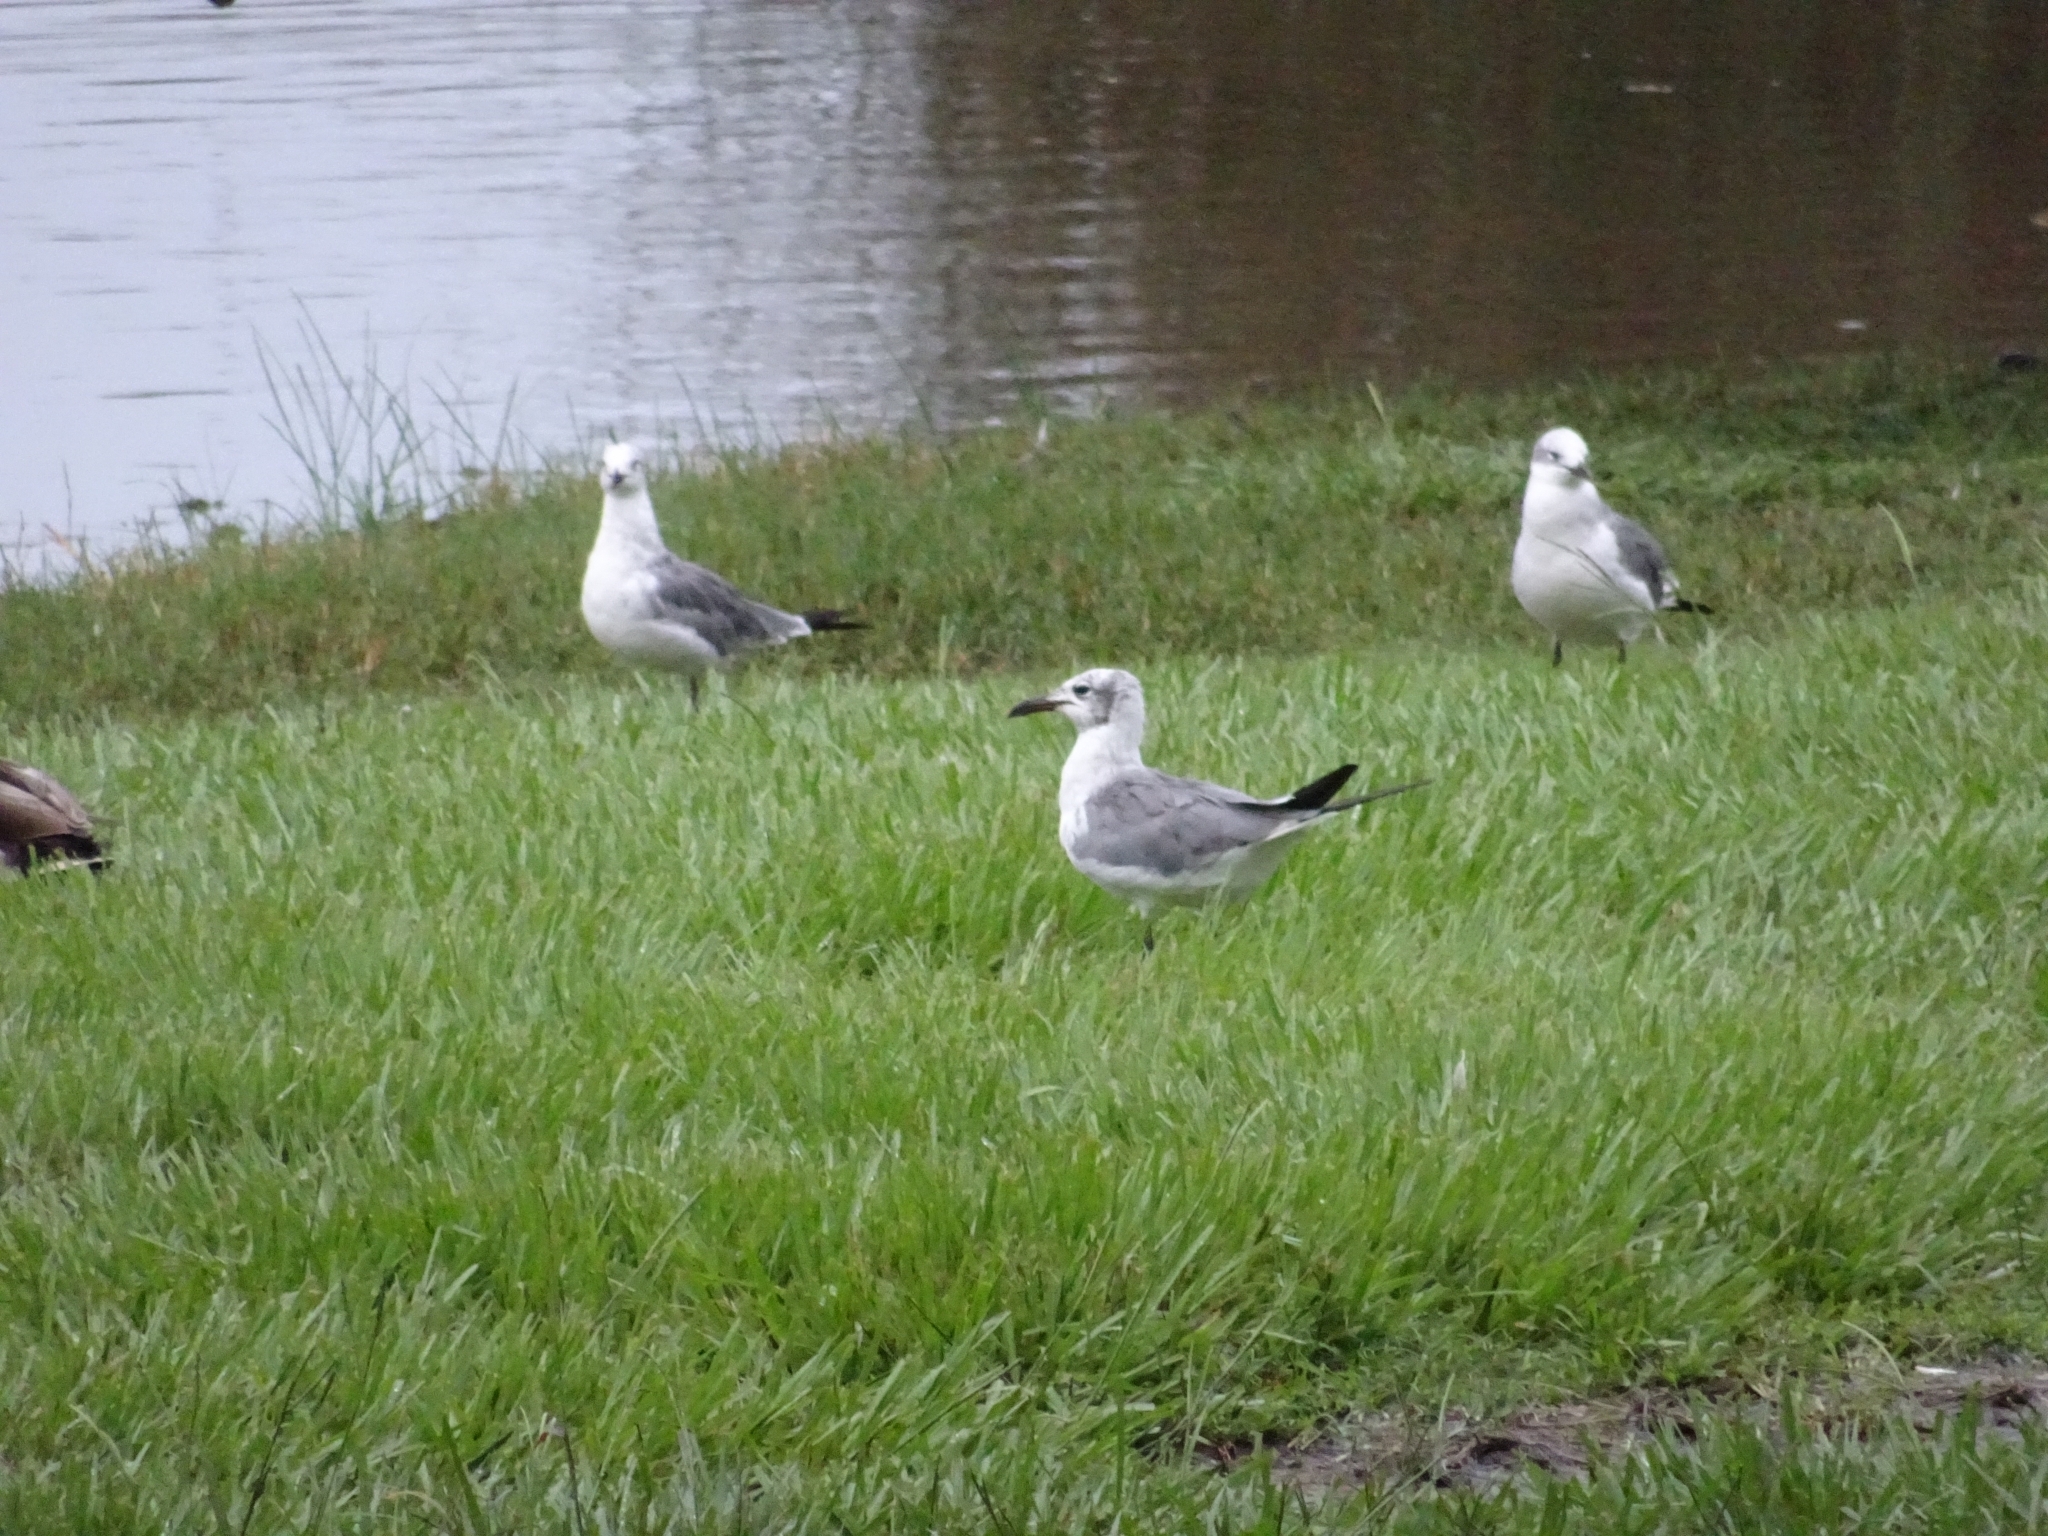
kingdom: Animalia
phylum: Chordata
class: Aves
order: Charadriiformes
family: Laridae
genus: Leucophaeus
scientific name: Leucophaeus atricilla
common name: Laughing gull
